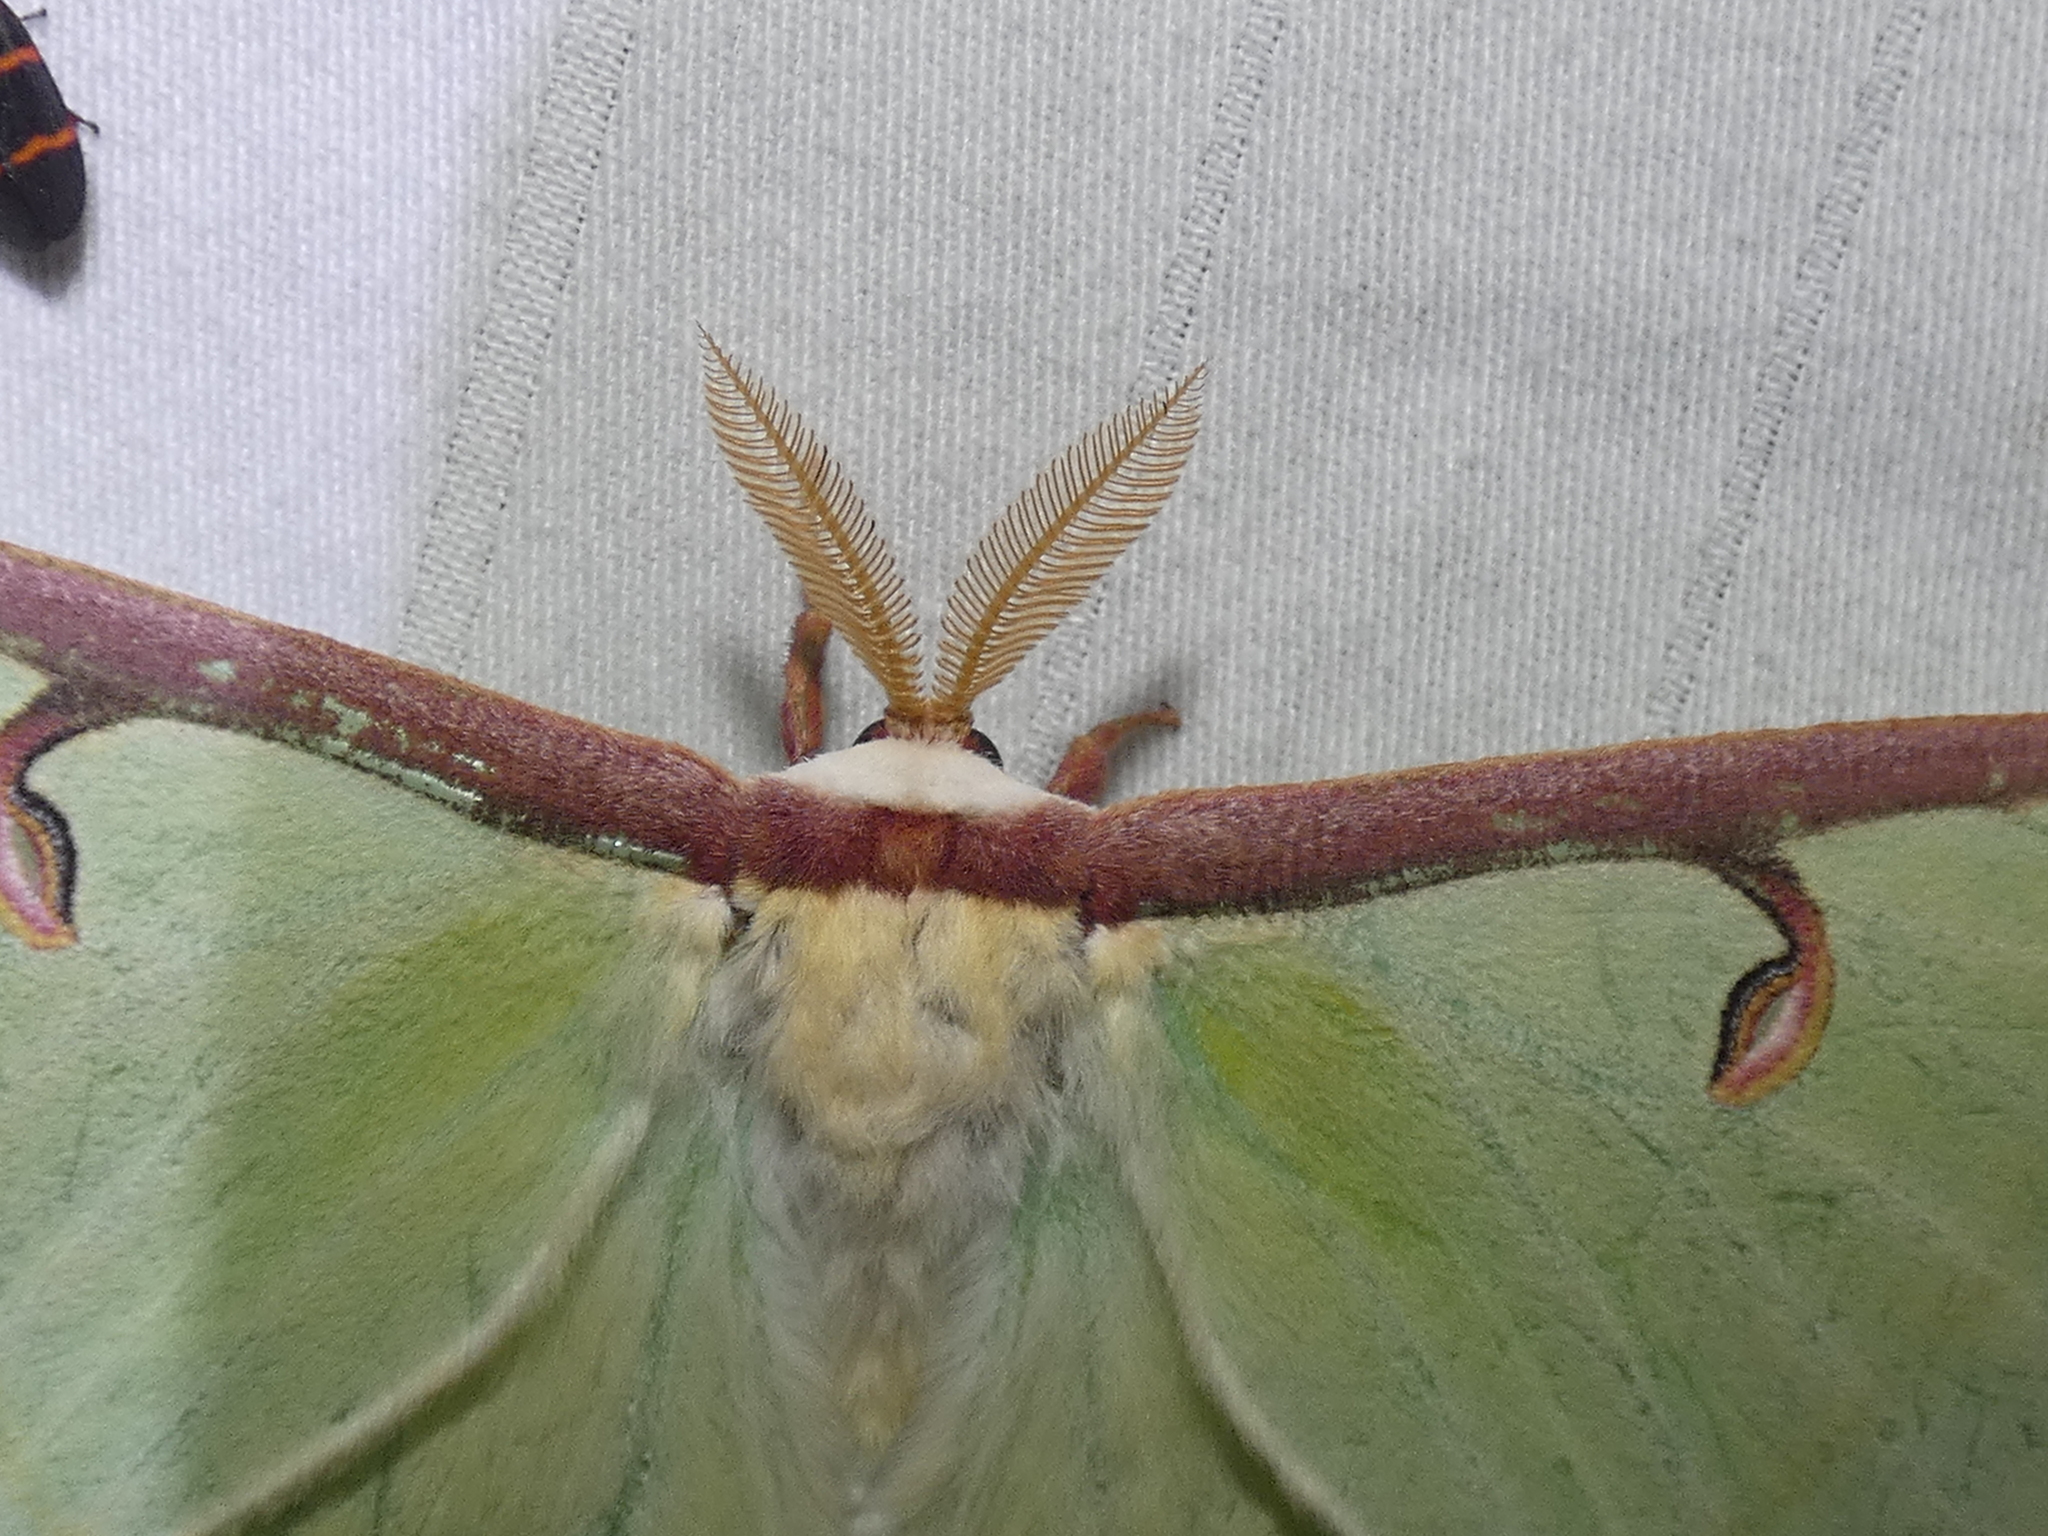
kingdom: Animalia
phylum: Arthropoda
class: Insecta
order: Lepidoptera
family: Saturniidae
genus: Actias
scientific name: Actias luna
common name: Luna moth
